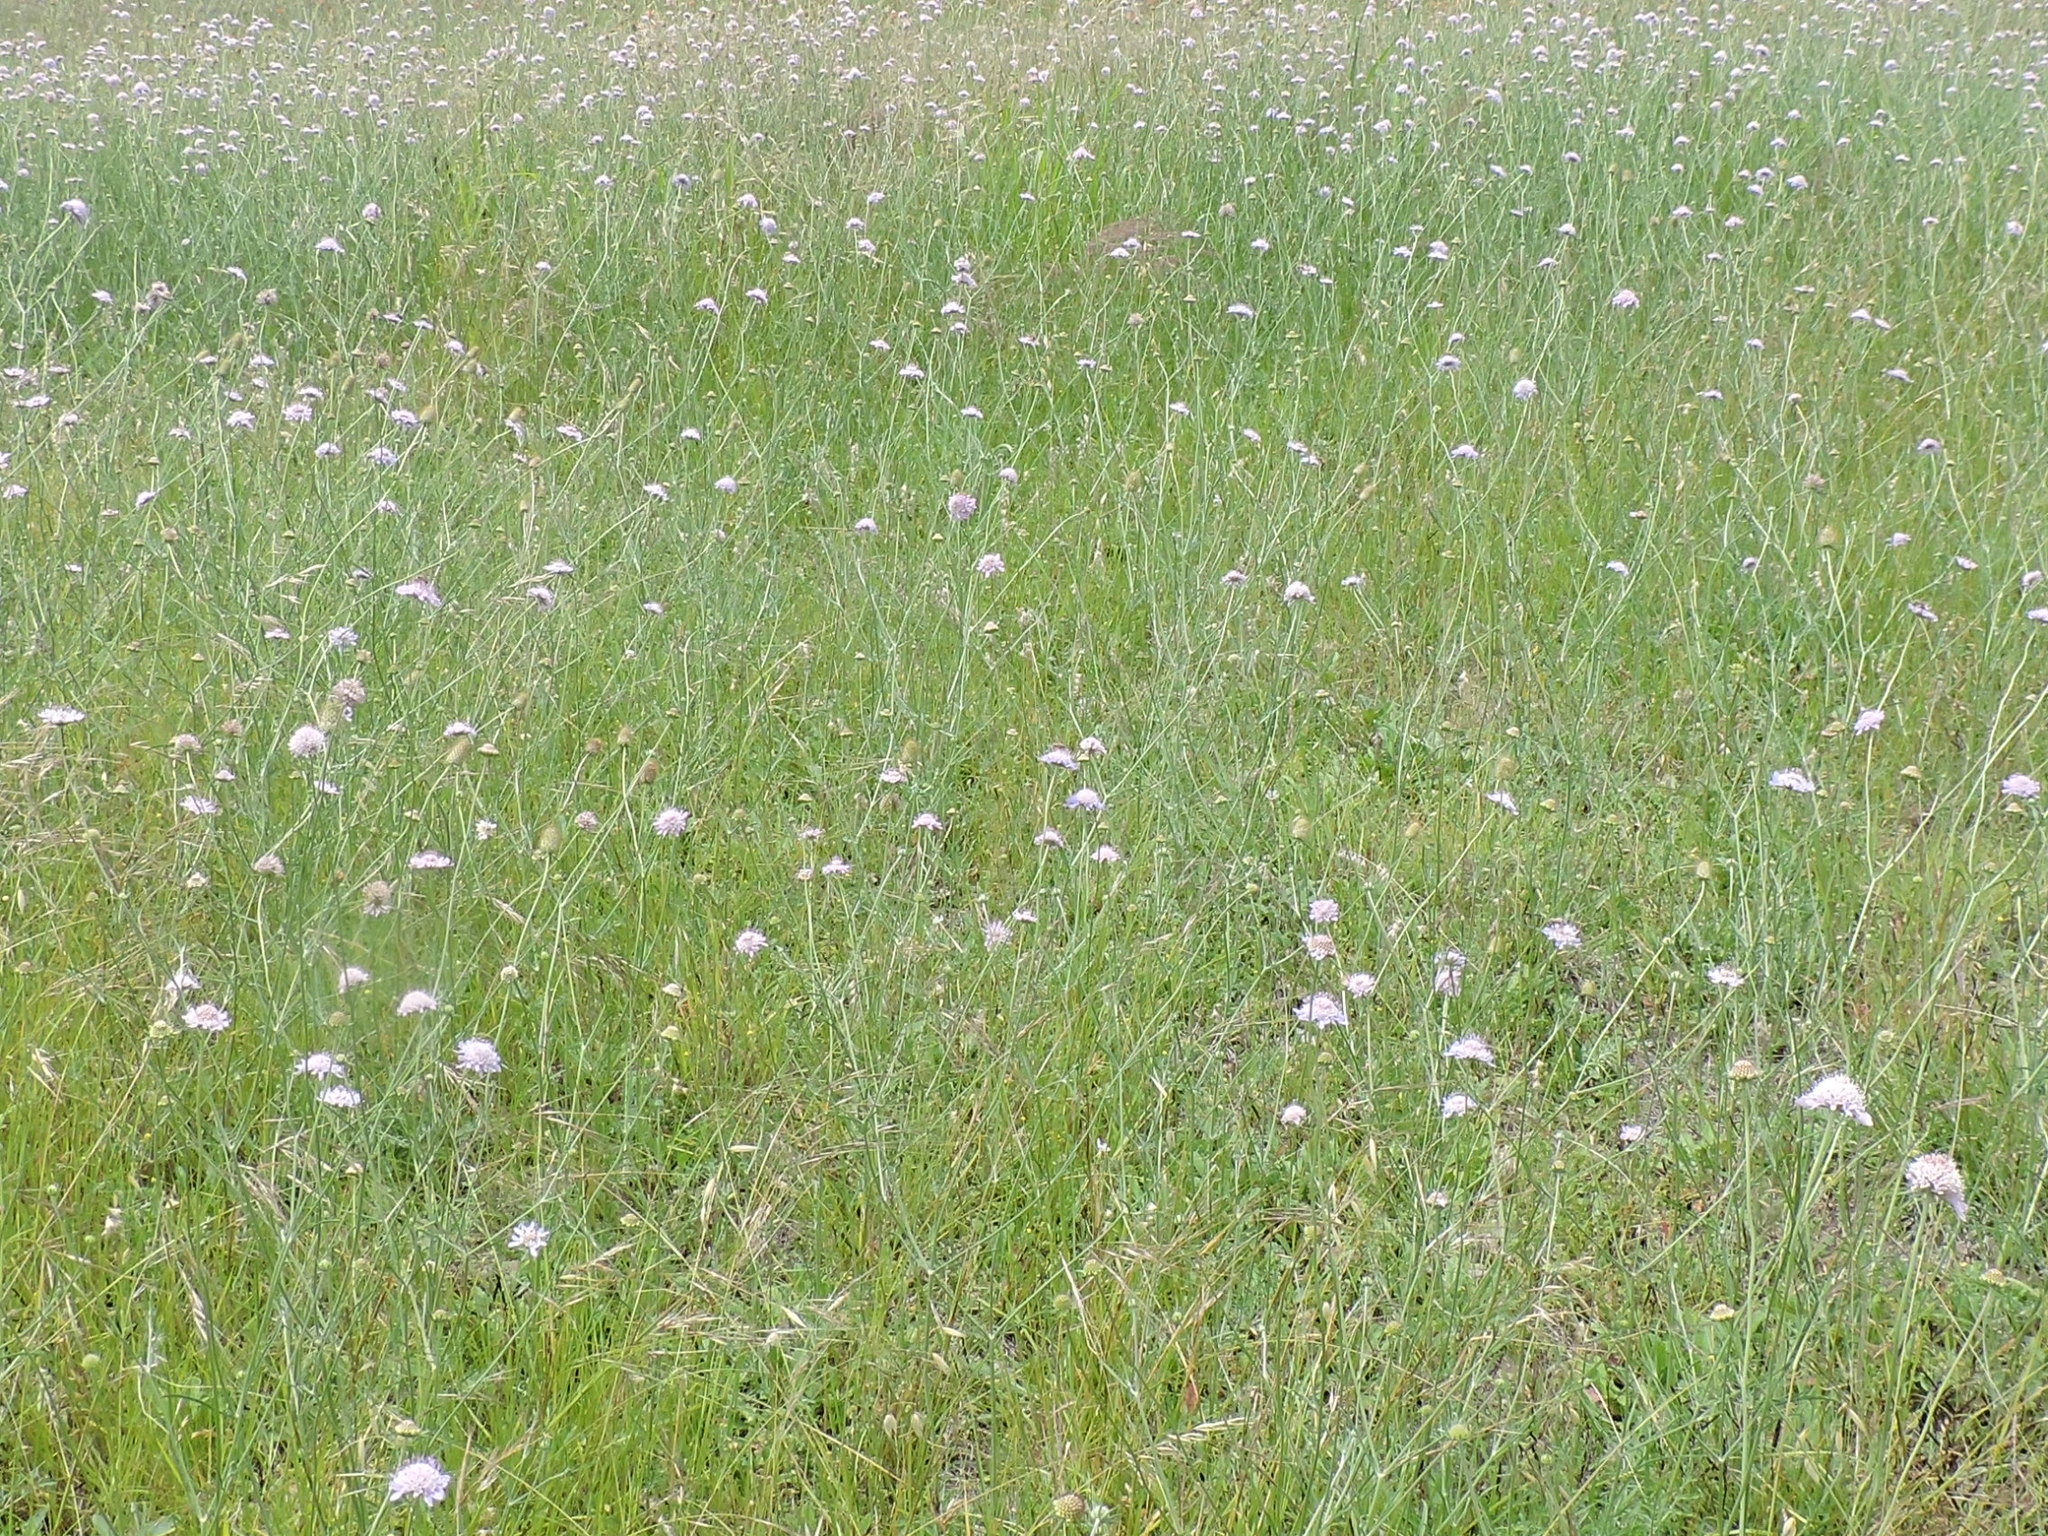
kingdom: Plantae
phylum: Tracheophyta
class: Magnoliopsida
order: Dipsacales
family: Caprifoliaceae
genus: Sixalix
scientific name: Sixalix atropurpurea
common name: Sweet scabious
